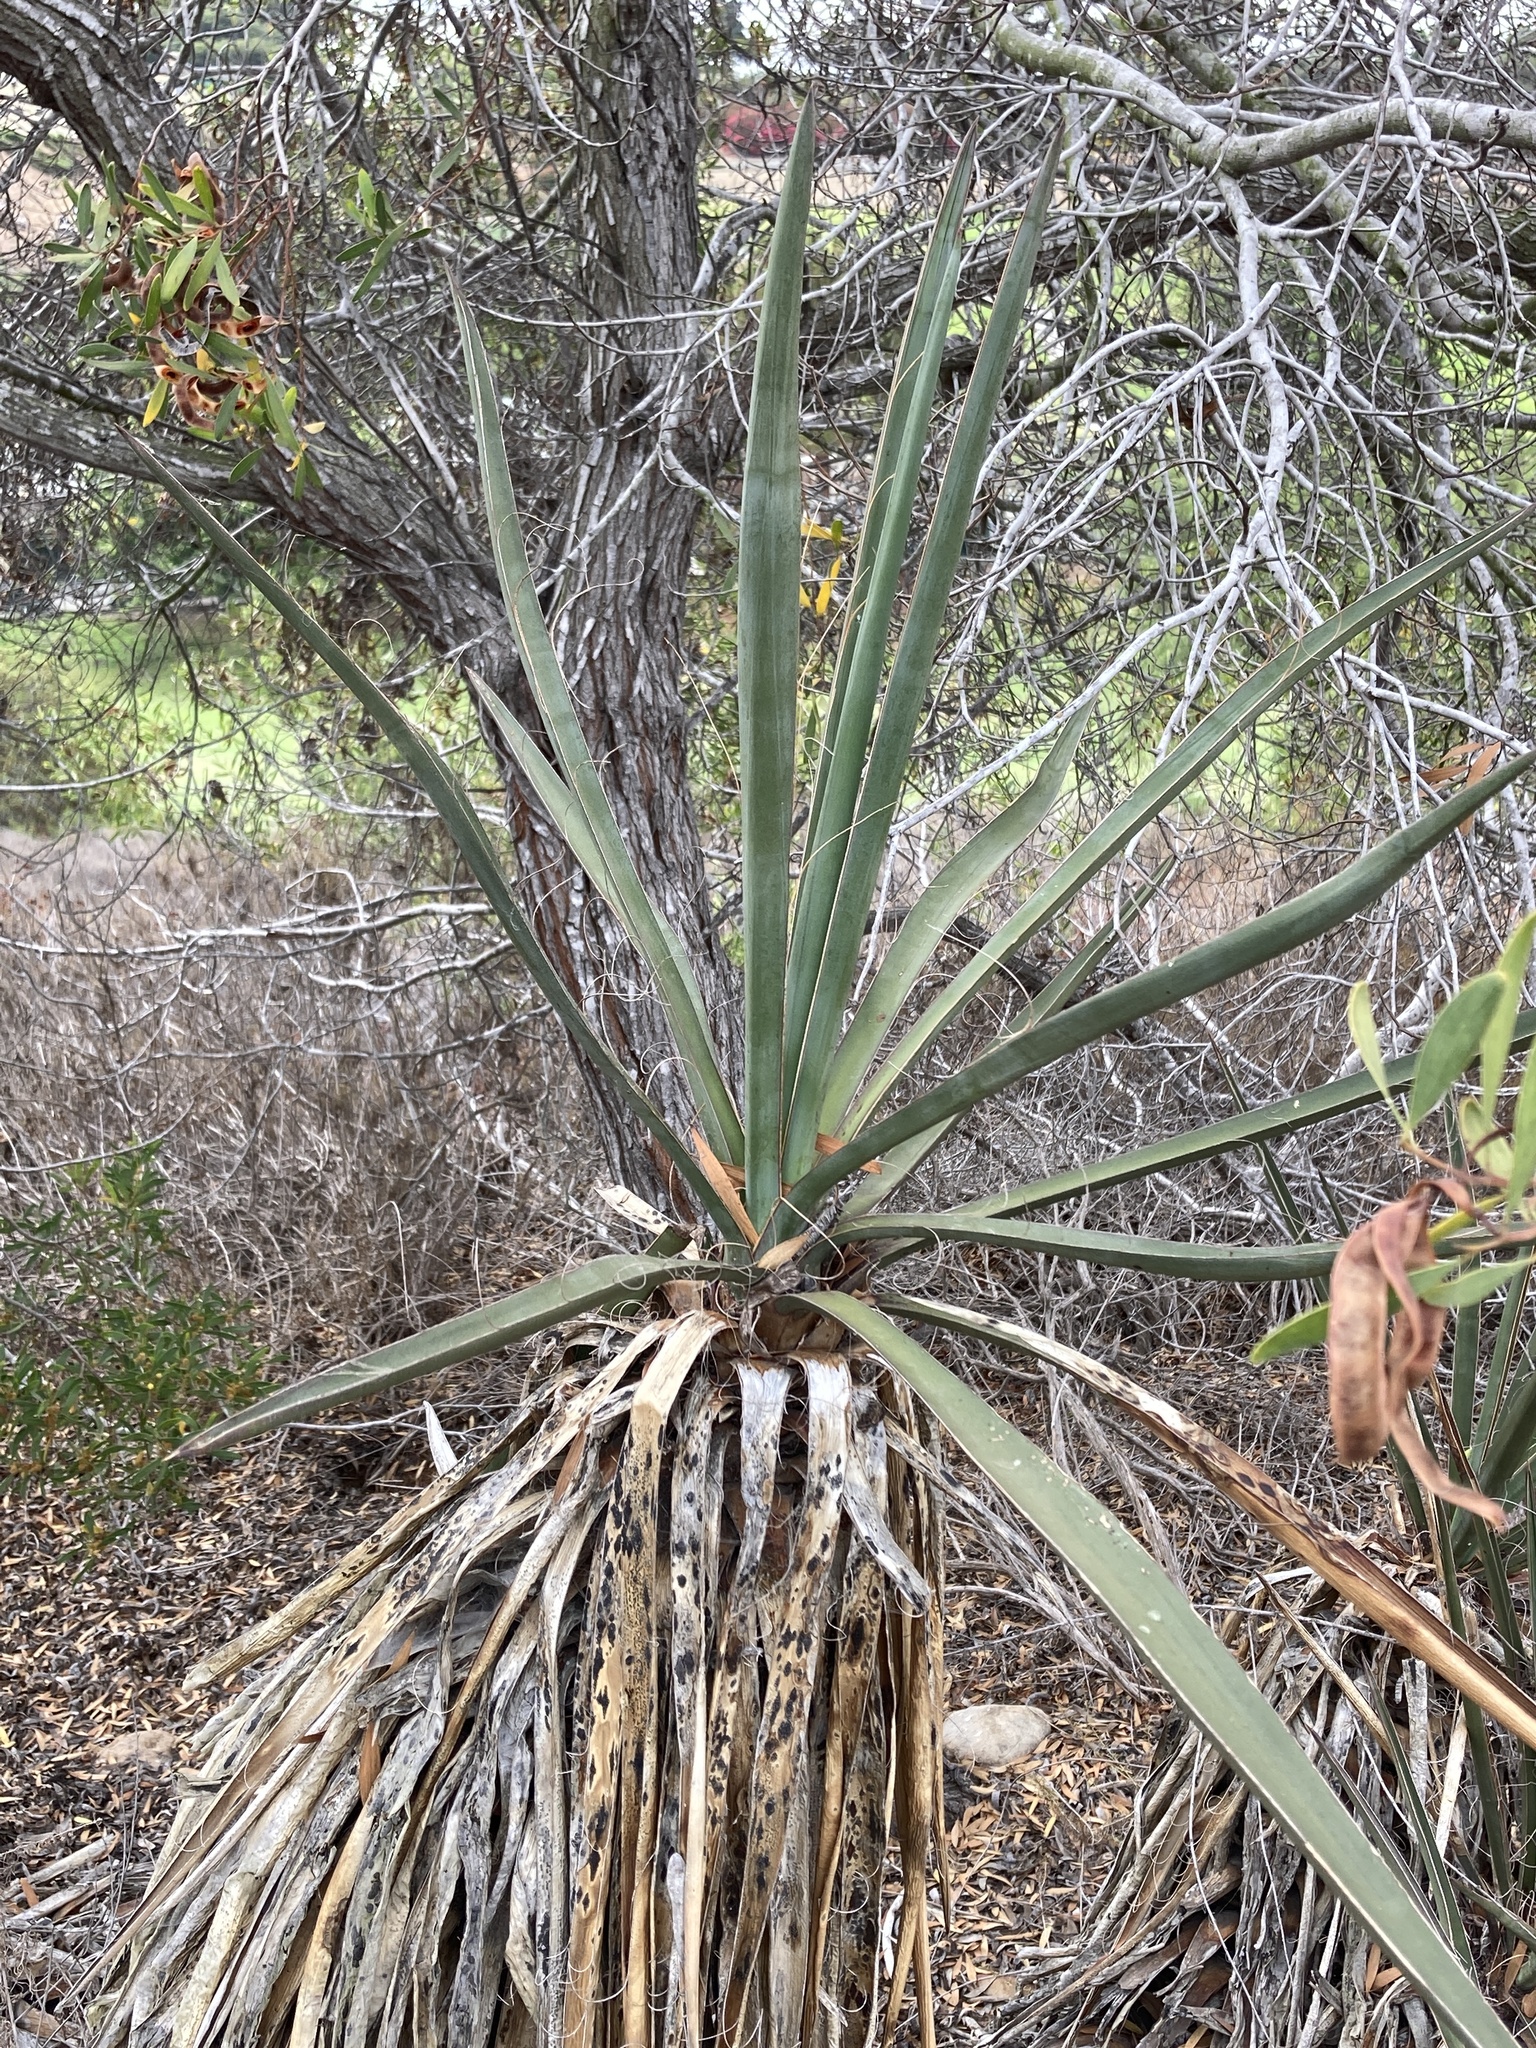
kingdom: Plantae
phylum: Tracheophyta
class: Liliopsida
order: Asparagales
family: Asparagaceae
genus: Yucca
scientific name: Yucca schidigera
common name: Mojave yucca
